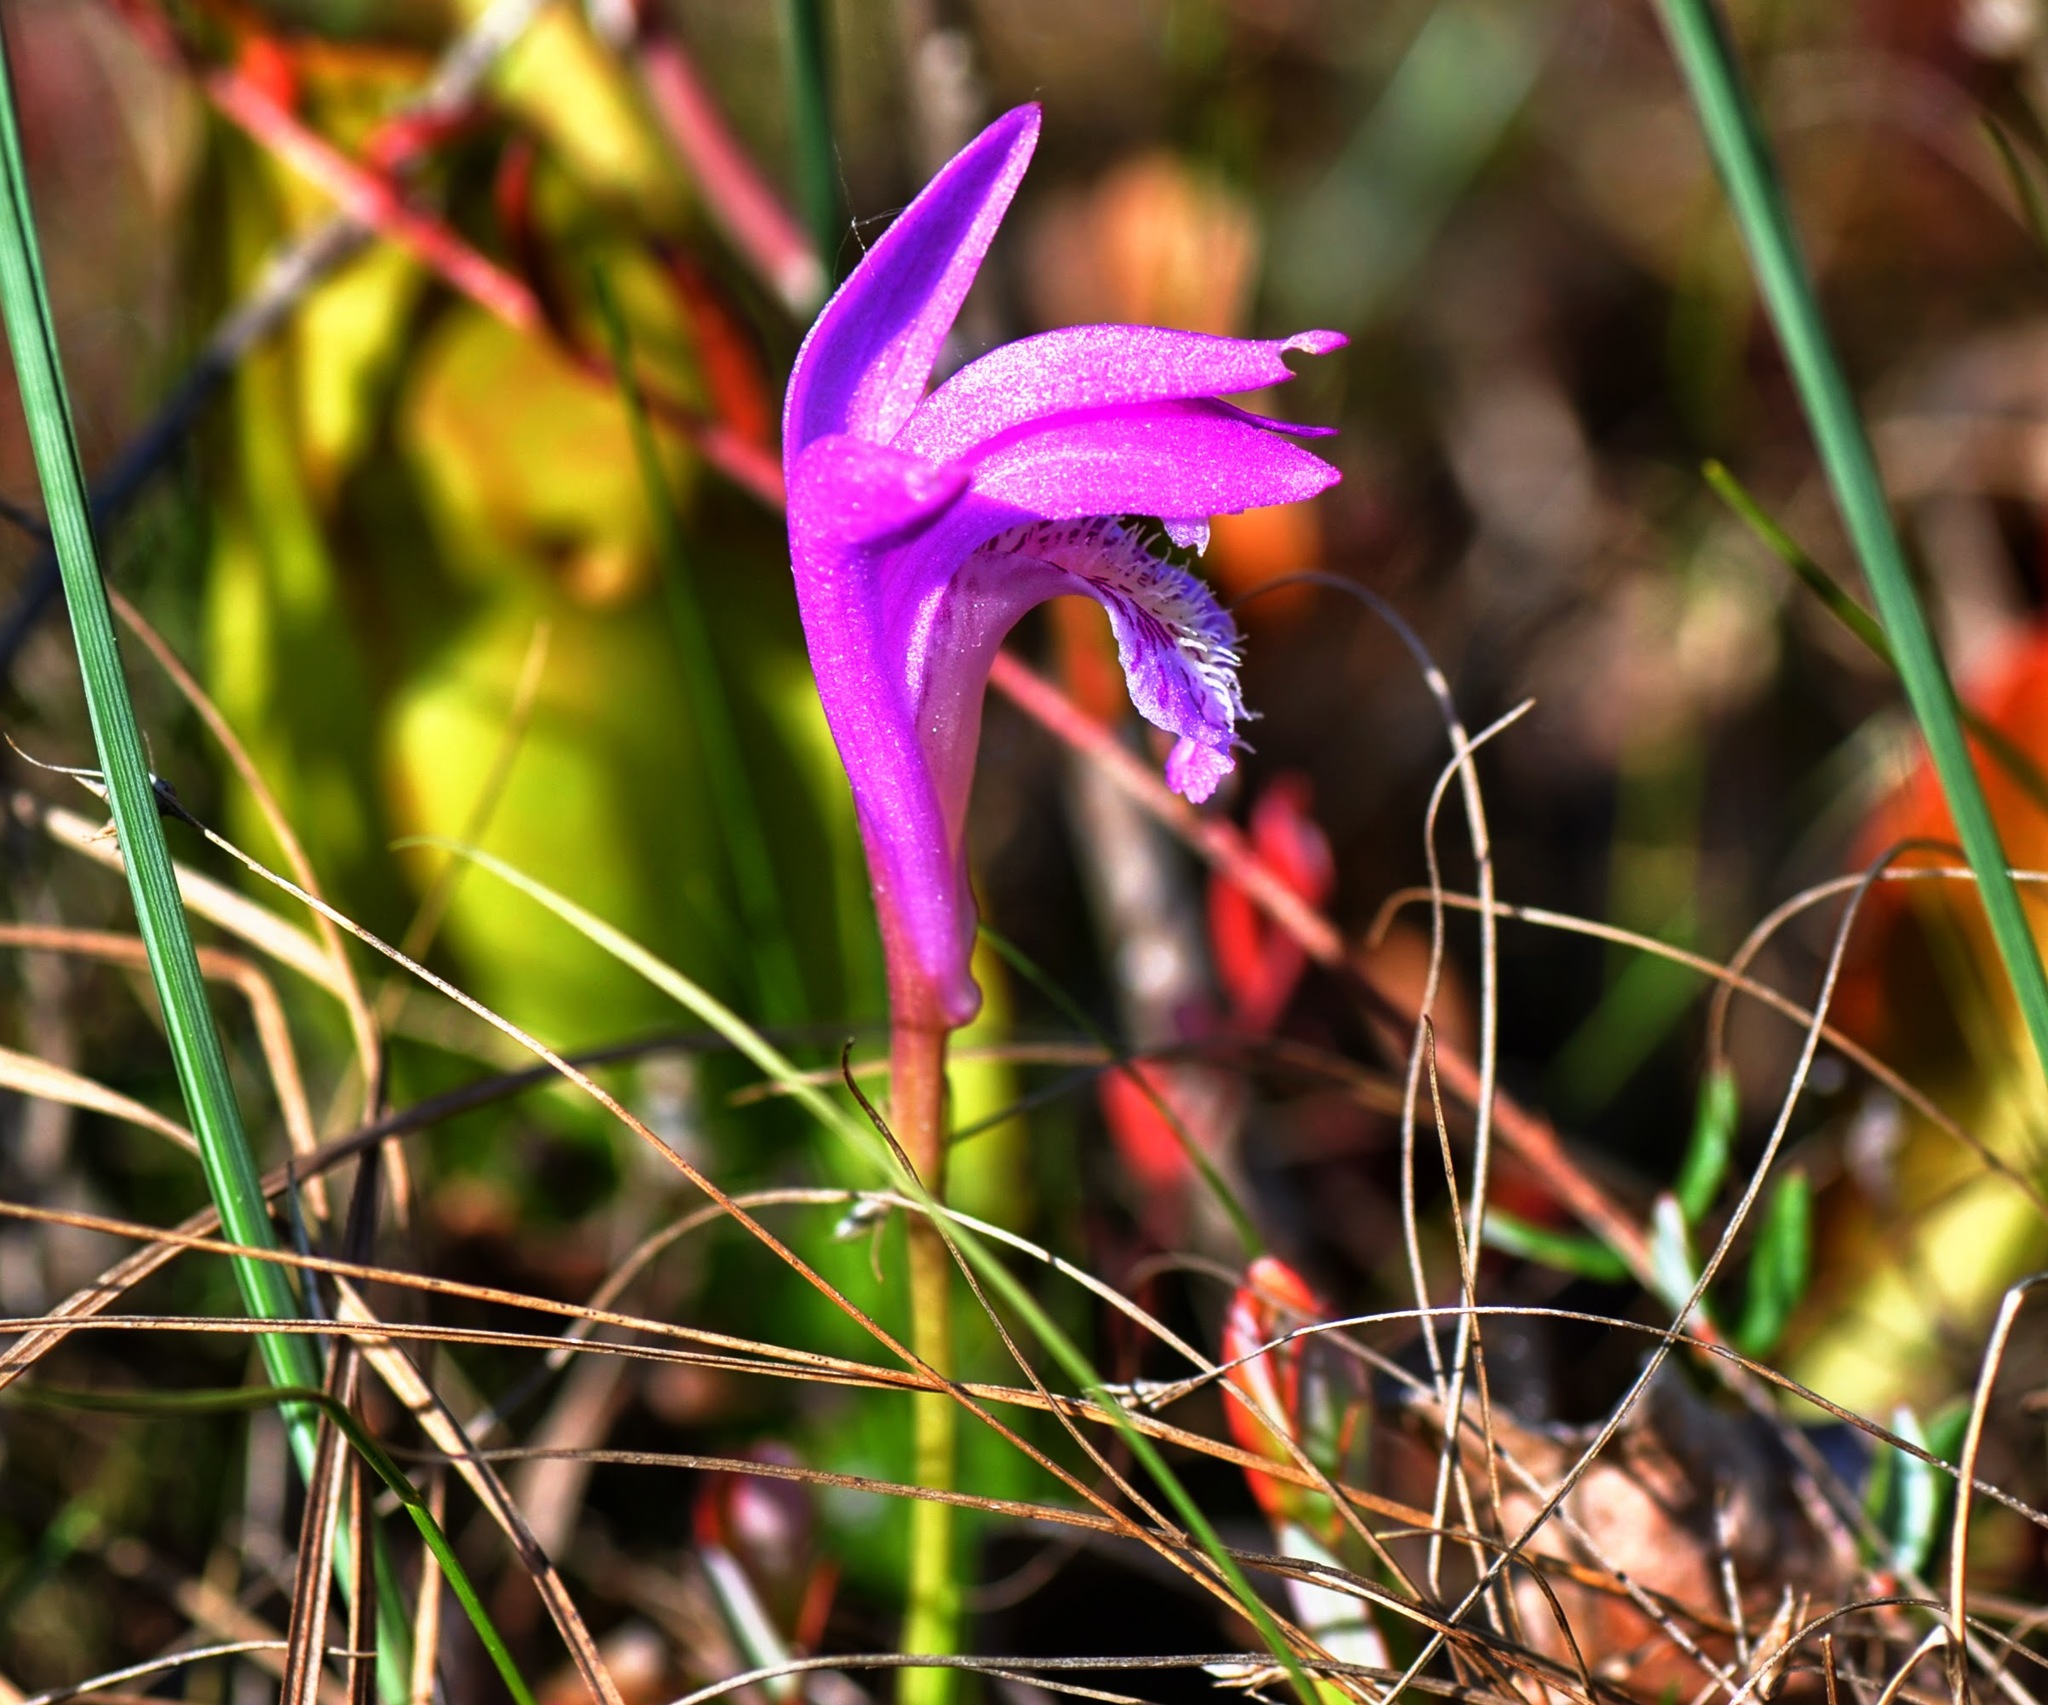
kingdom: Plantae
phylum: Tracheophyta
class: Liliopsida
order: Asparagales
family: Orchidaceae
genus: Arethusa
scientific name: Arethusa bulbosa
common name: Arethusa
